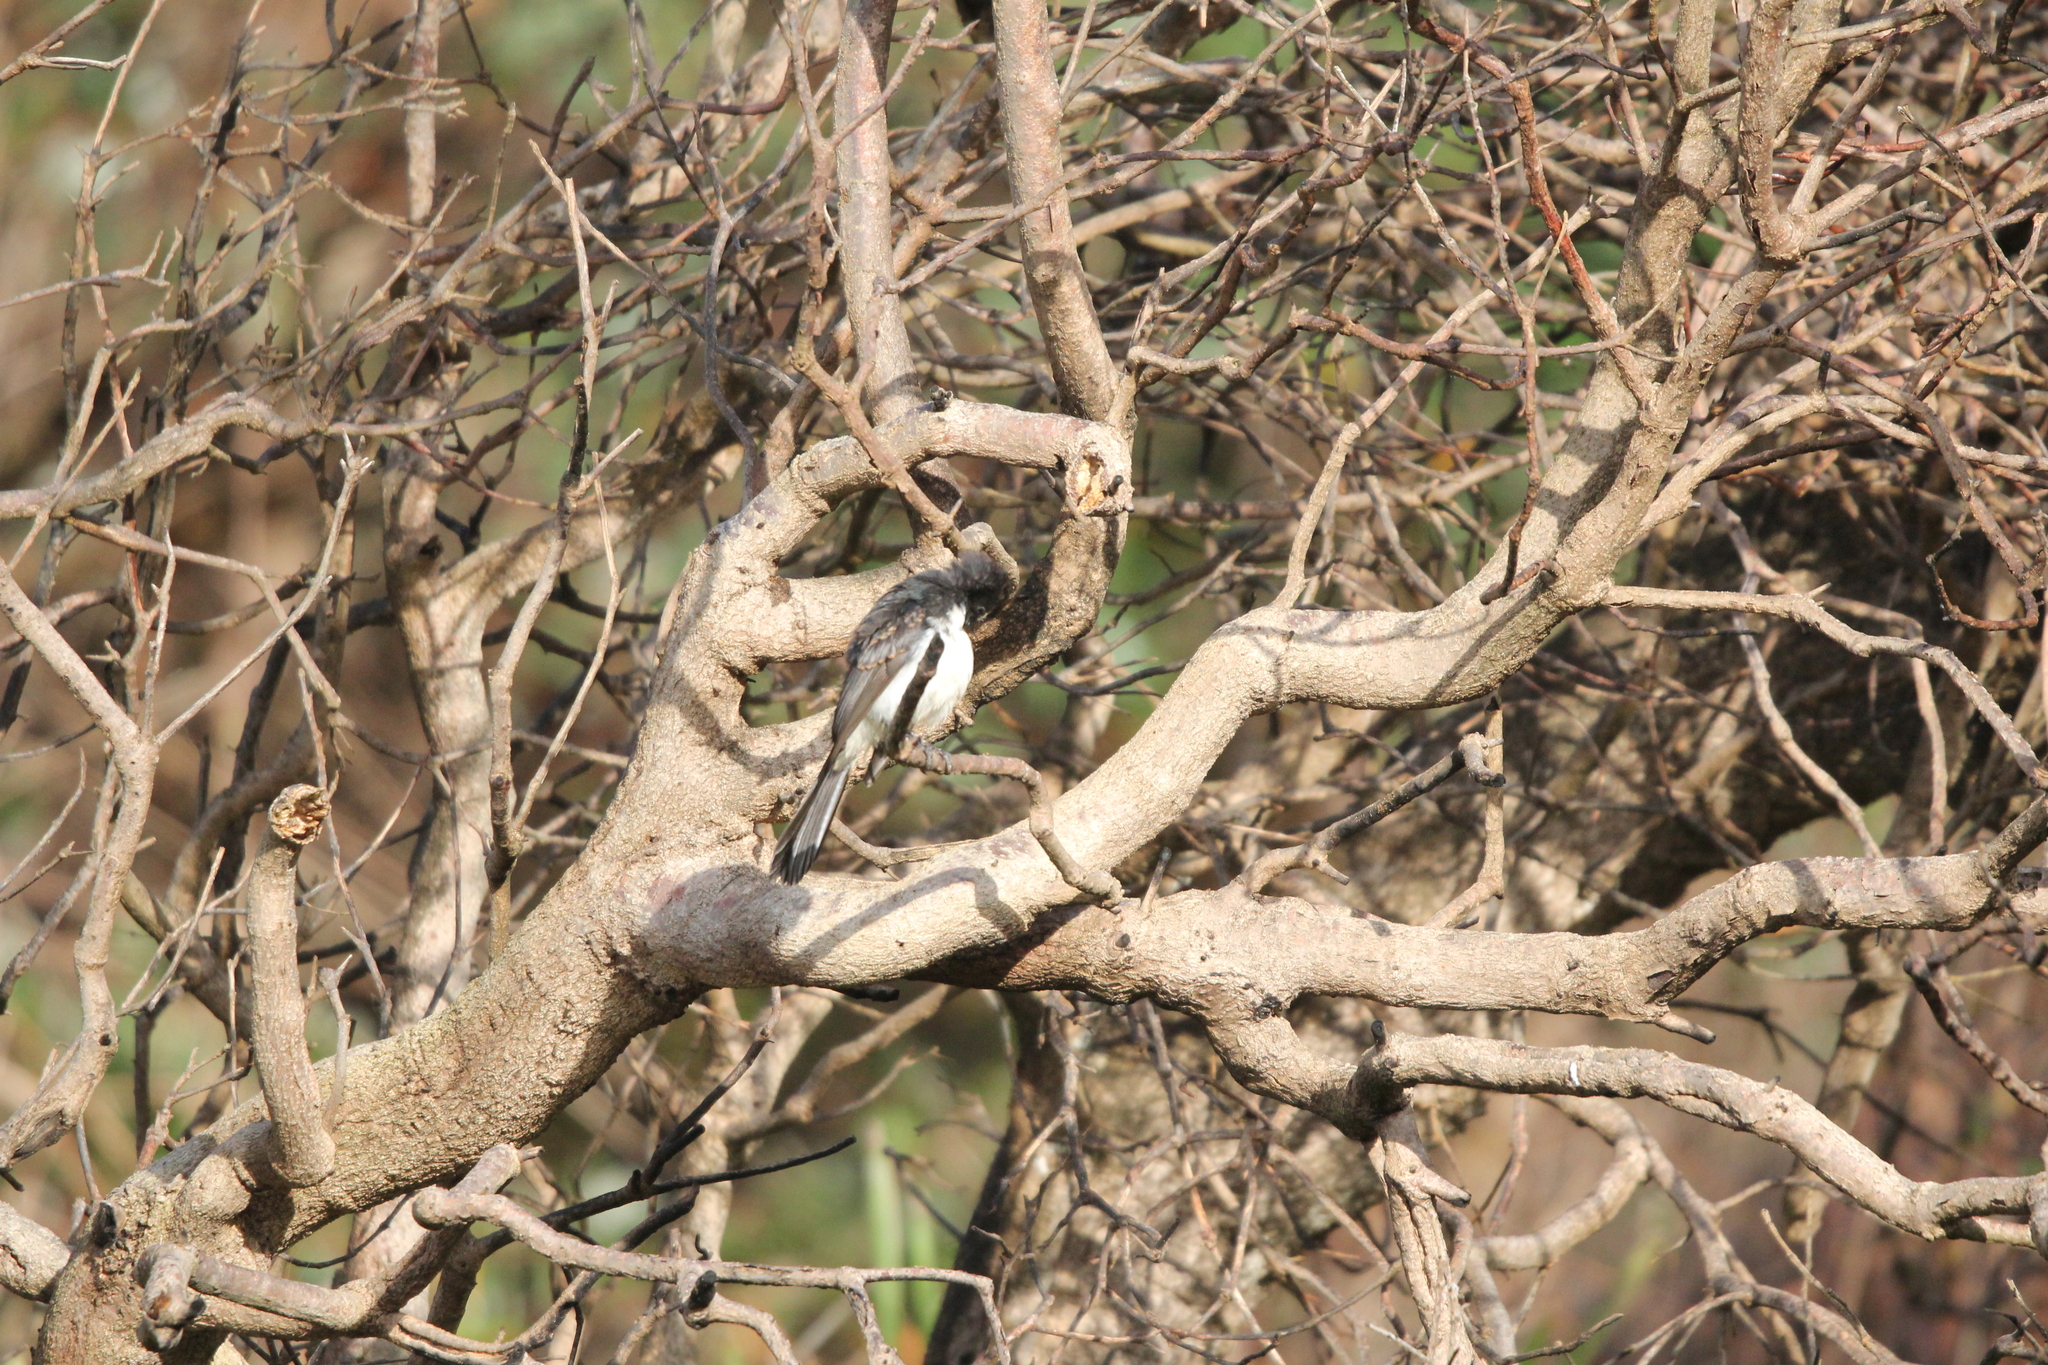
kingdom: Animalia
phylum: Chordata
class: Aves
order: Passeriformes
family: Rhipiduridae
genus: Rhipidura
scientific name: Rhipidura leucophrys
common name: Willie wagtail
